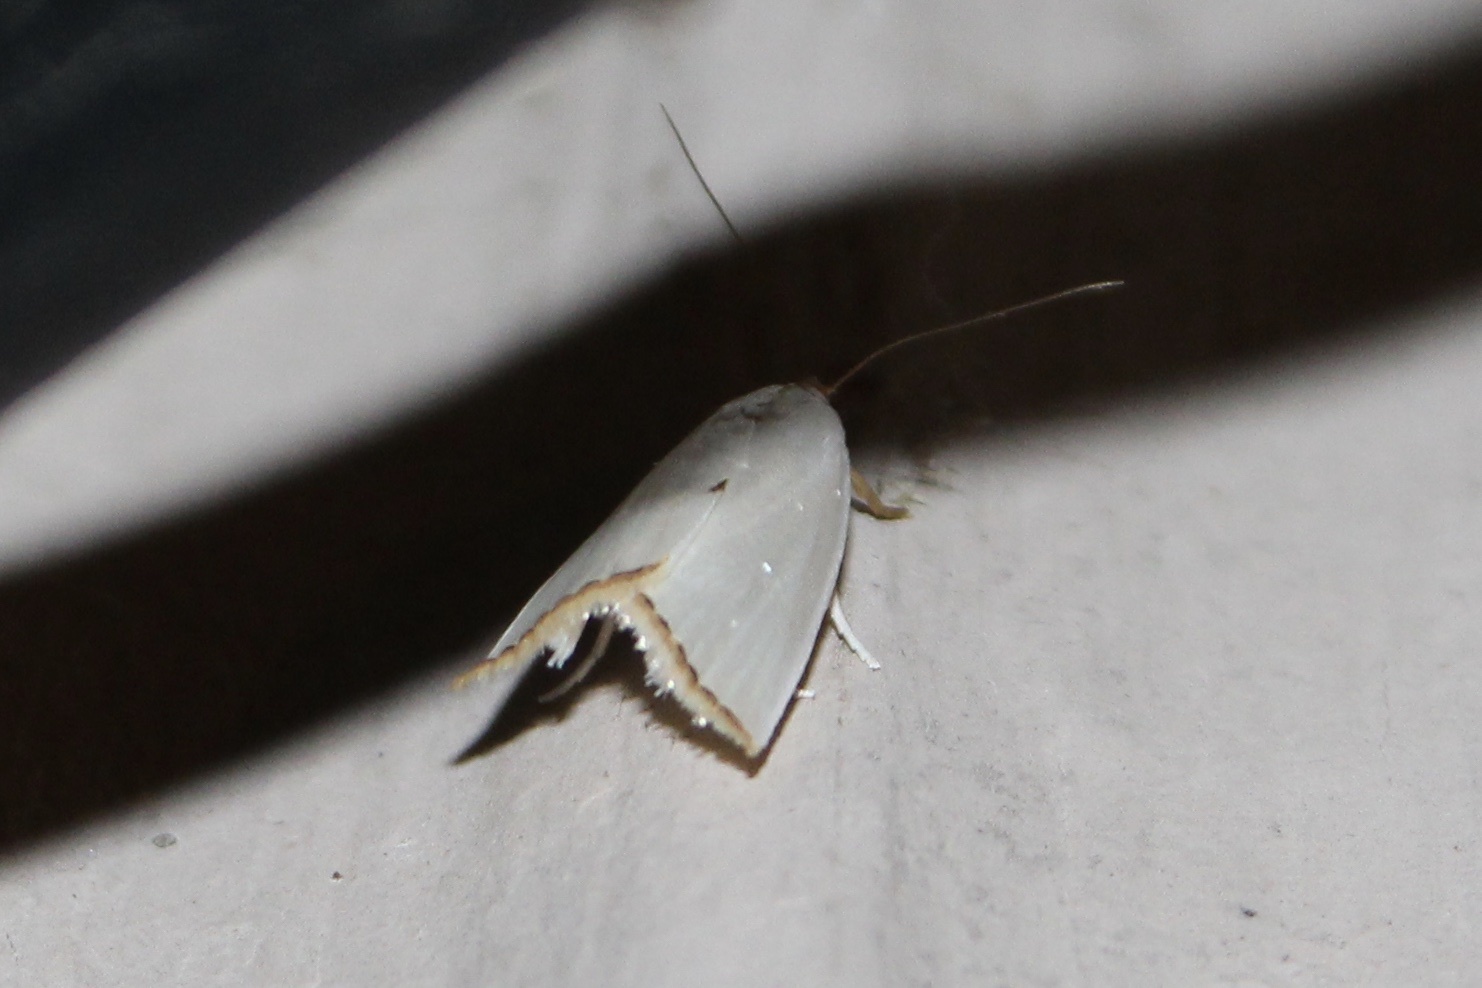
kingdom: Animalia
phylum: Arthropoda
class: Insecta
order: Lepidoptera
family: Crambidae
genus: Argyria
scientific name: Argyria nivalis
